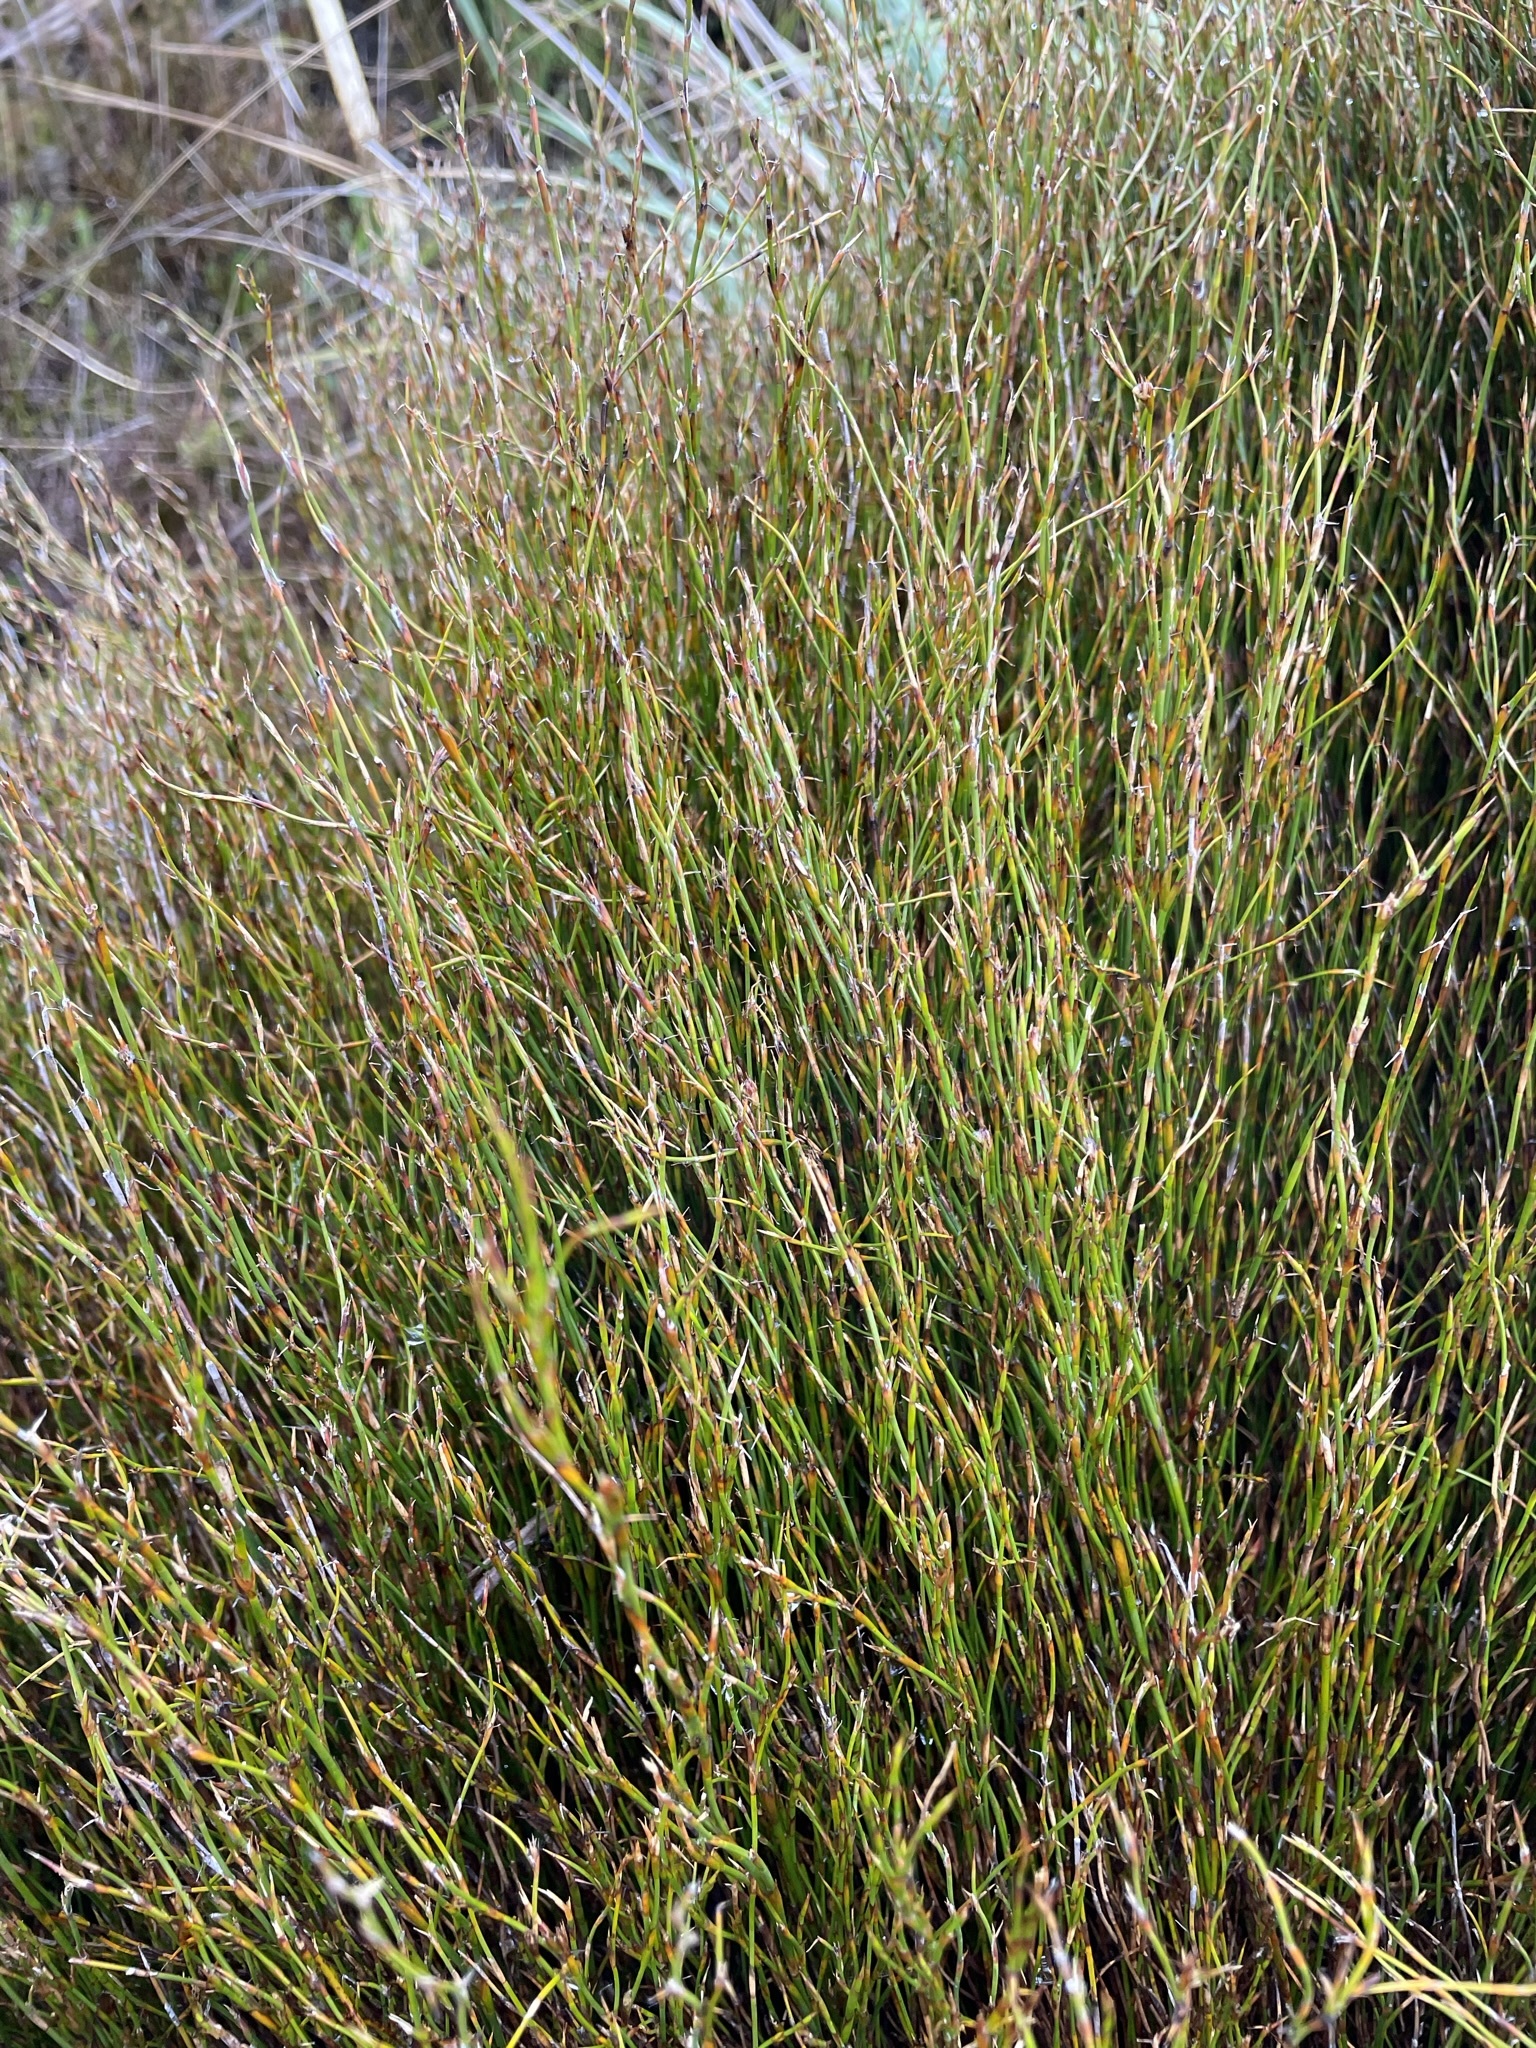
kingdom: Plantae
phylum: Tracheophyta
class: Liliopsida
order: Poales
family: Restionaceae
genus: Empodisma
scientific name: Empodisma minus
